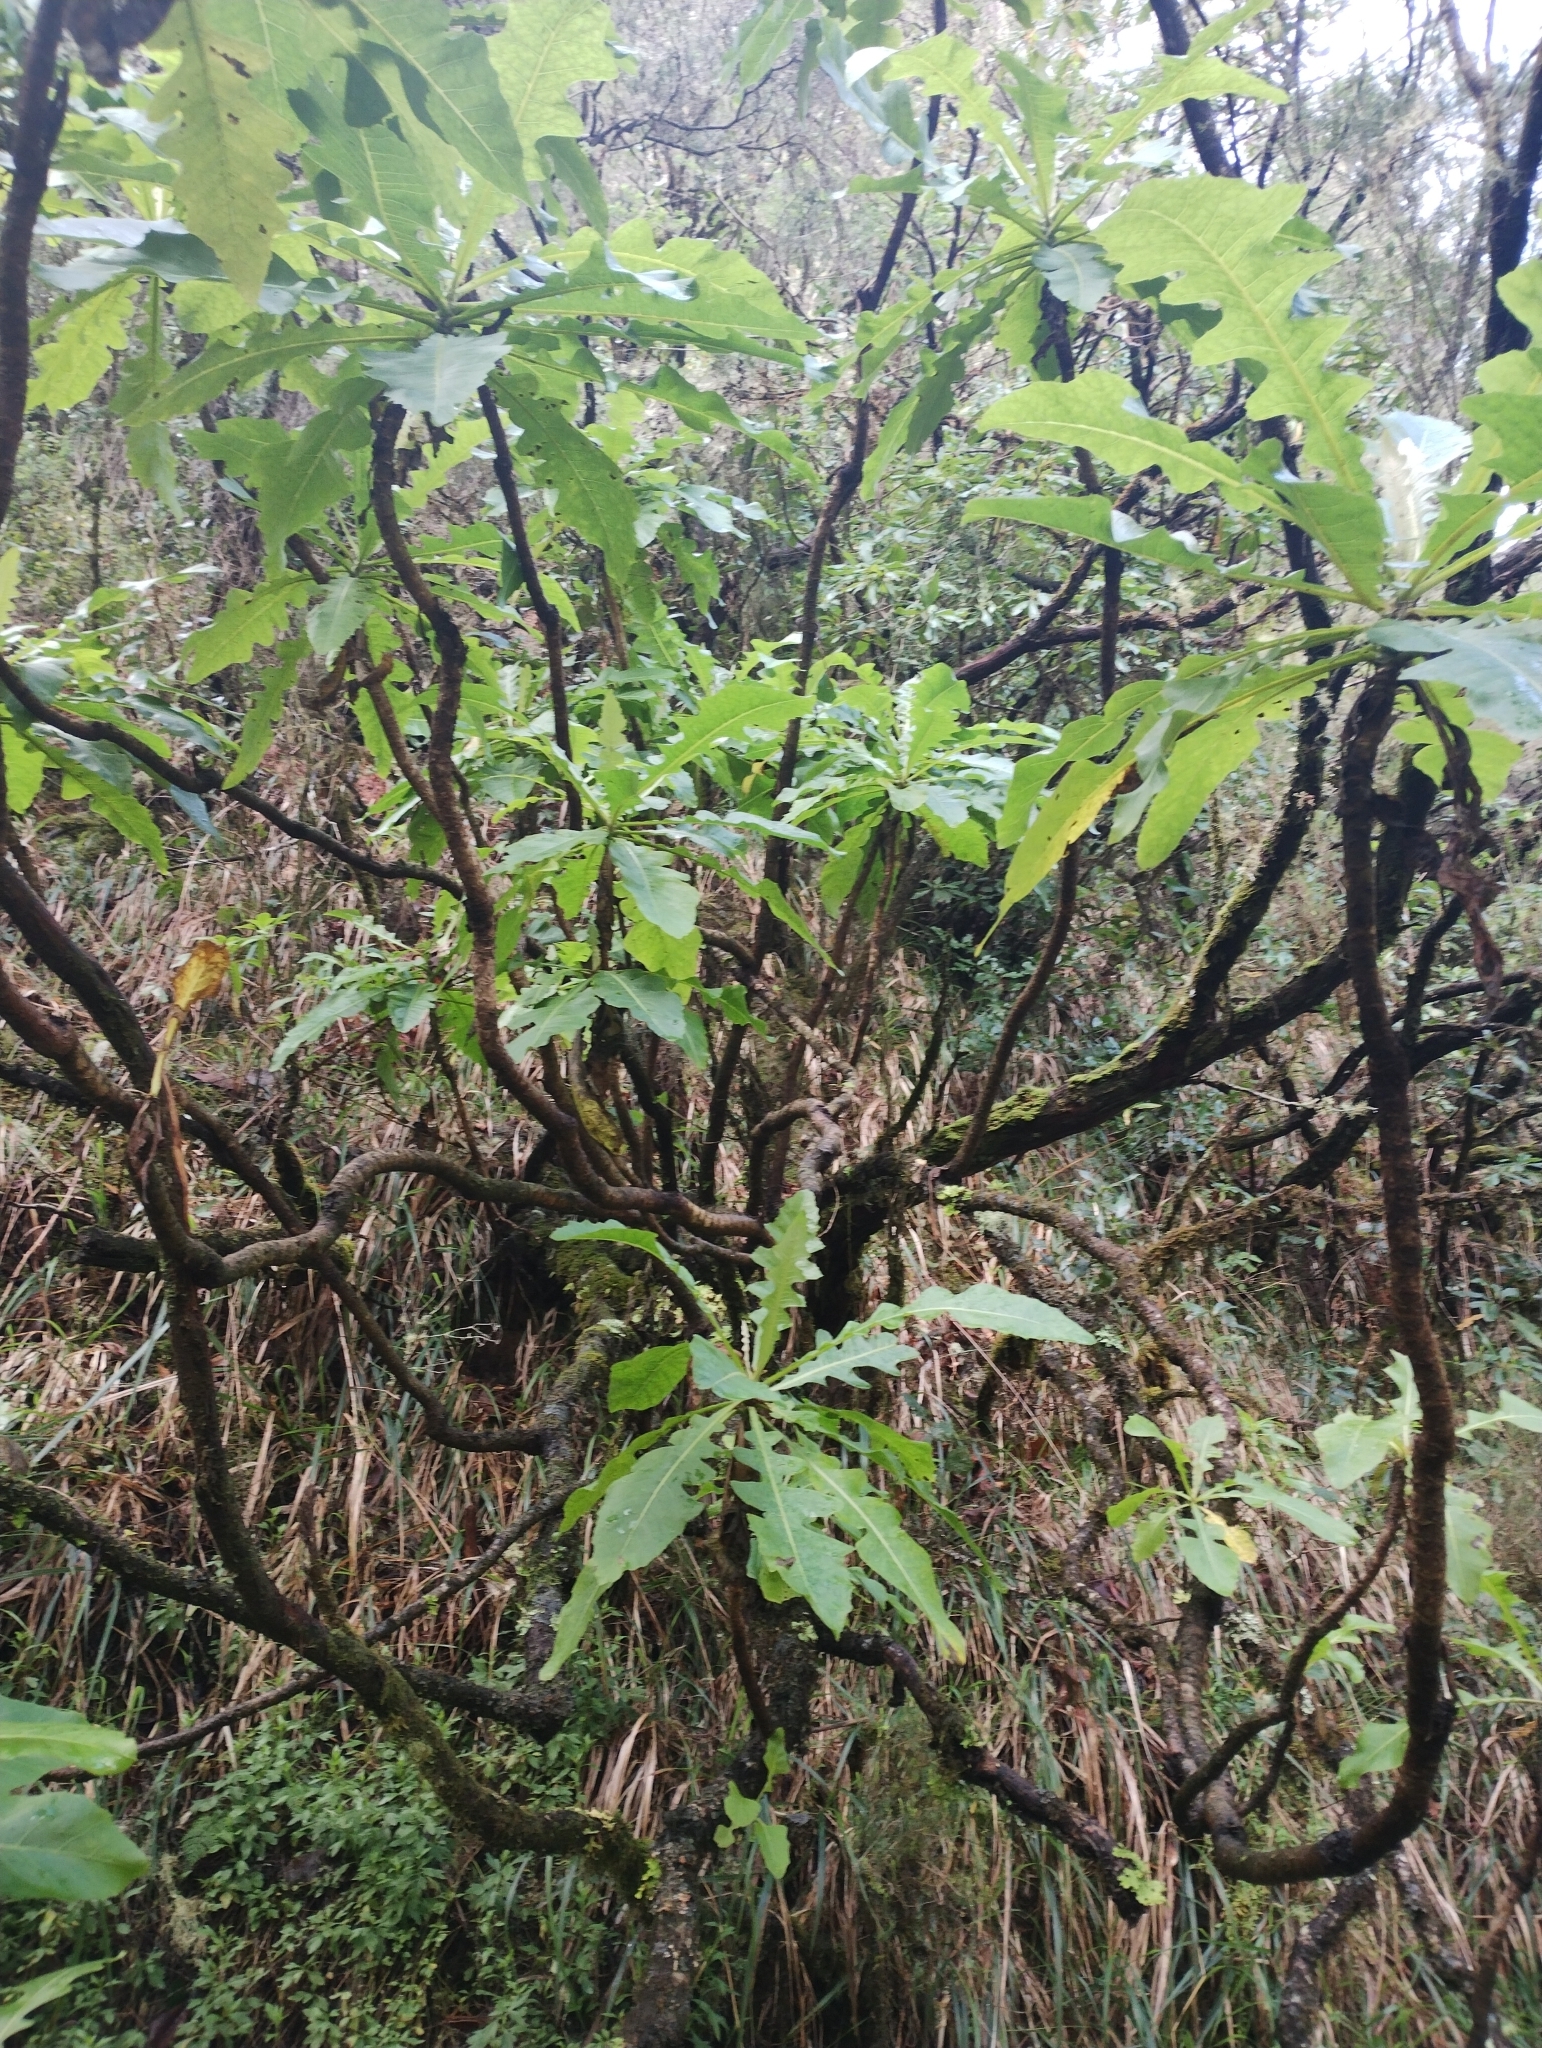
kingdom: Plantae
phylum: Tracheophyta
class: Magnoliopsida
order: Asterales
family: Asteraceae
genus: Sonchus
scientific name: Sonchus fruticosus
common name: Shrubby sow-thistle
